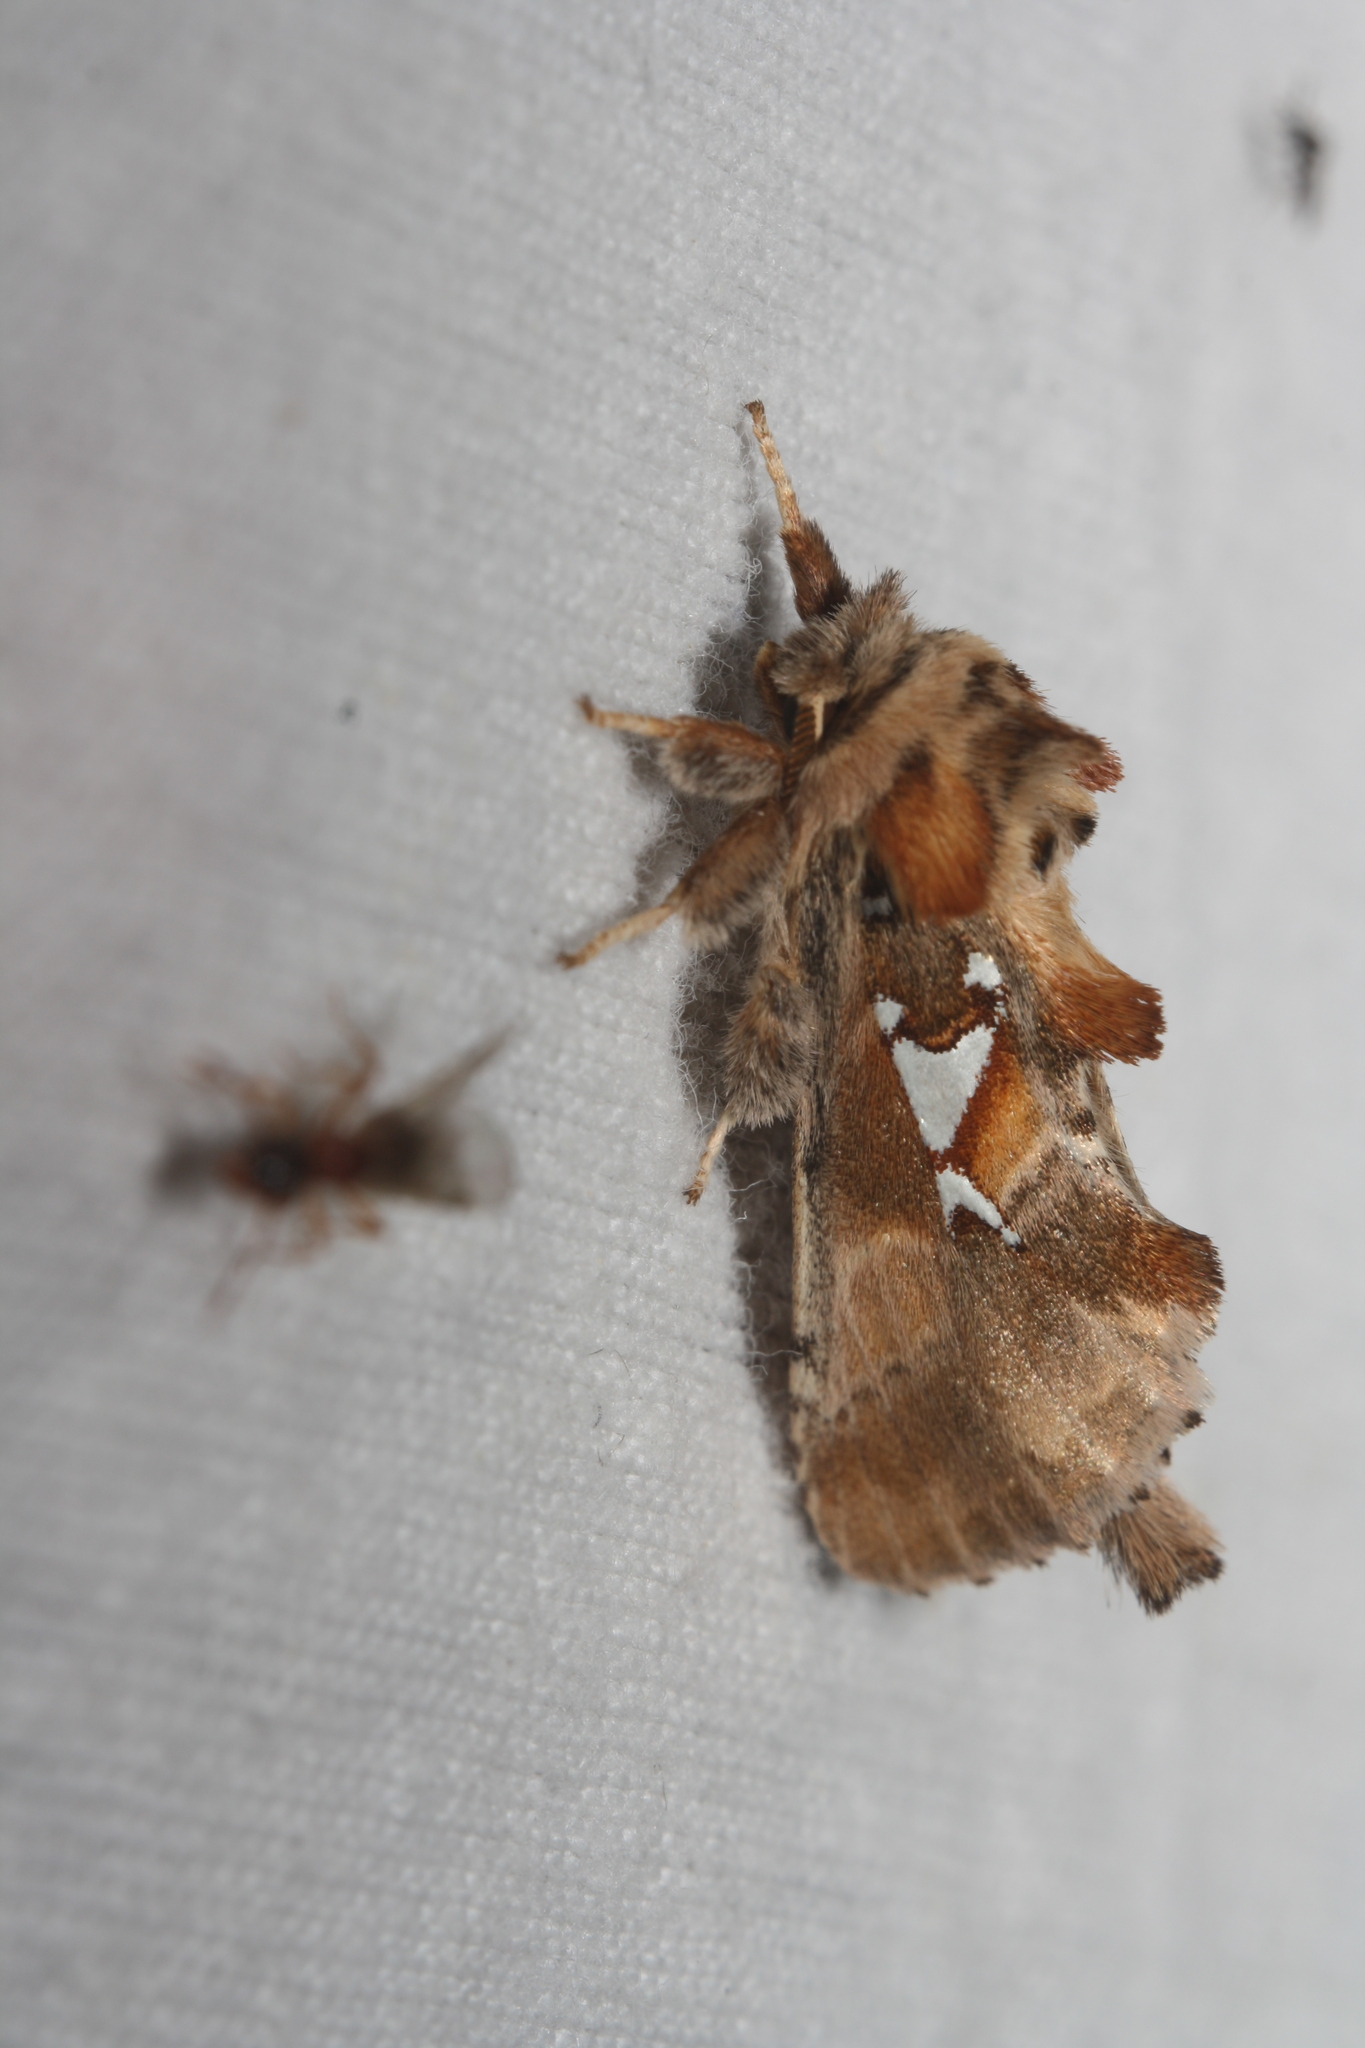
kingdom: Animalia
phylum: Arthropoda
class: Insecta
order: Lepidoptera
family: Notodontidae
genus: Spatalia
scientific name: Spatalia argentina
